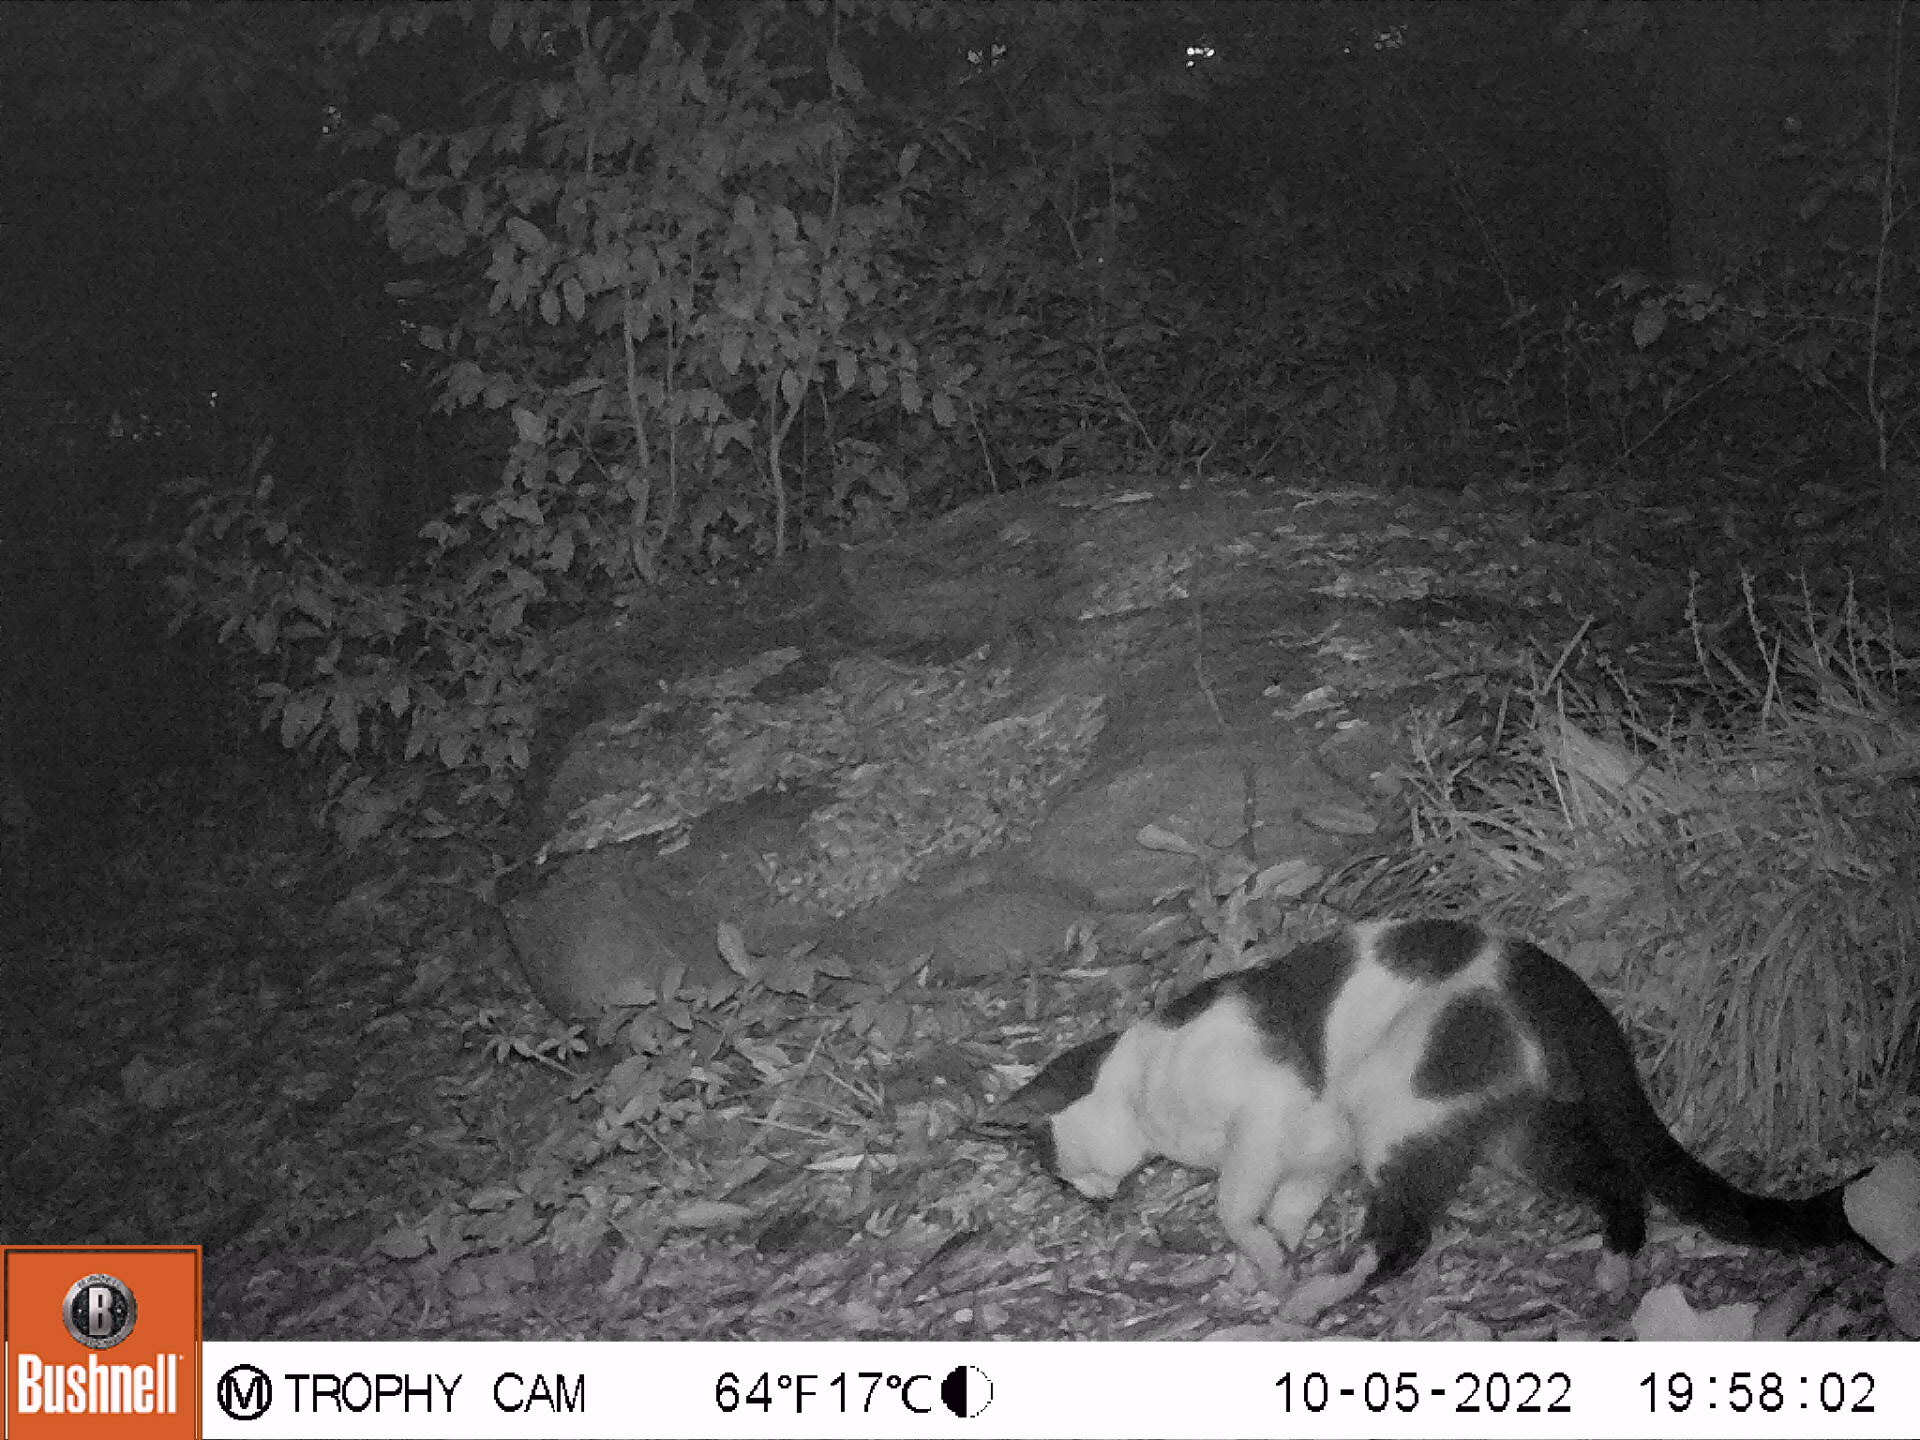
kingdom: Animalia
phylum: Chordata
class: Mammalia
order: Carnivora
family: Felidae
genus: Felis
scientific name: Felis catus
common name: Domestic cat
